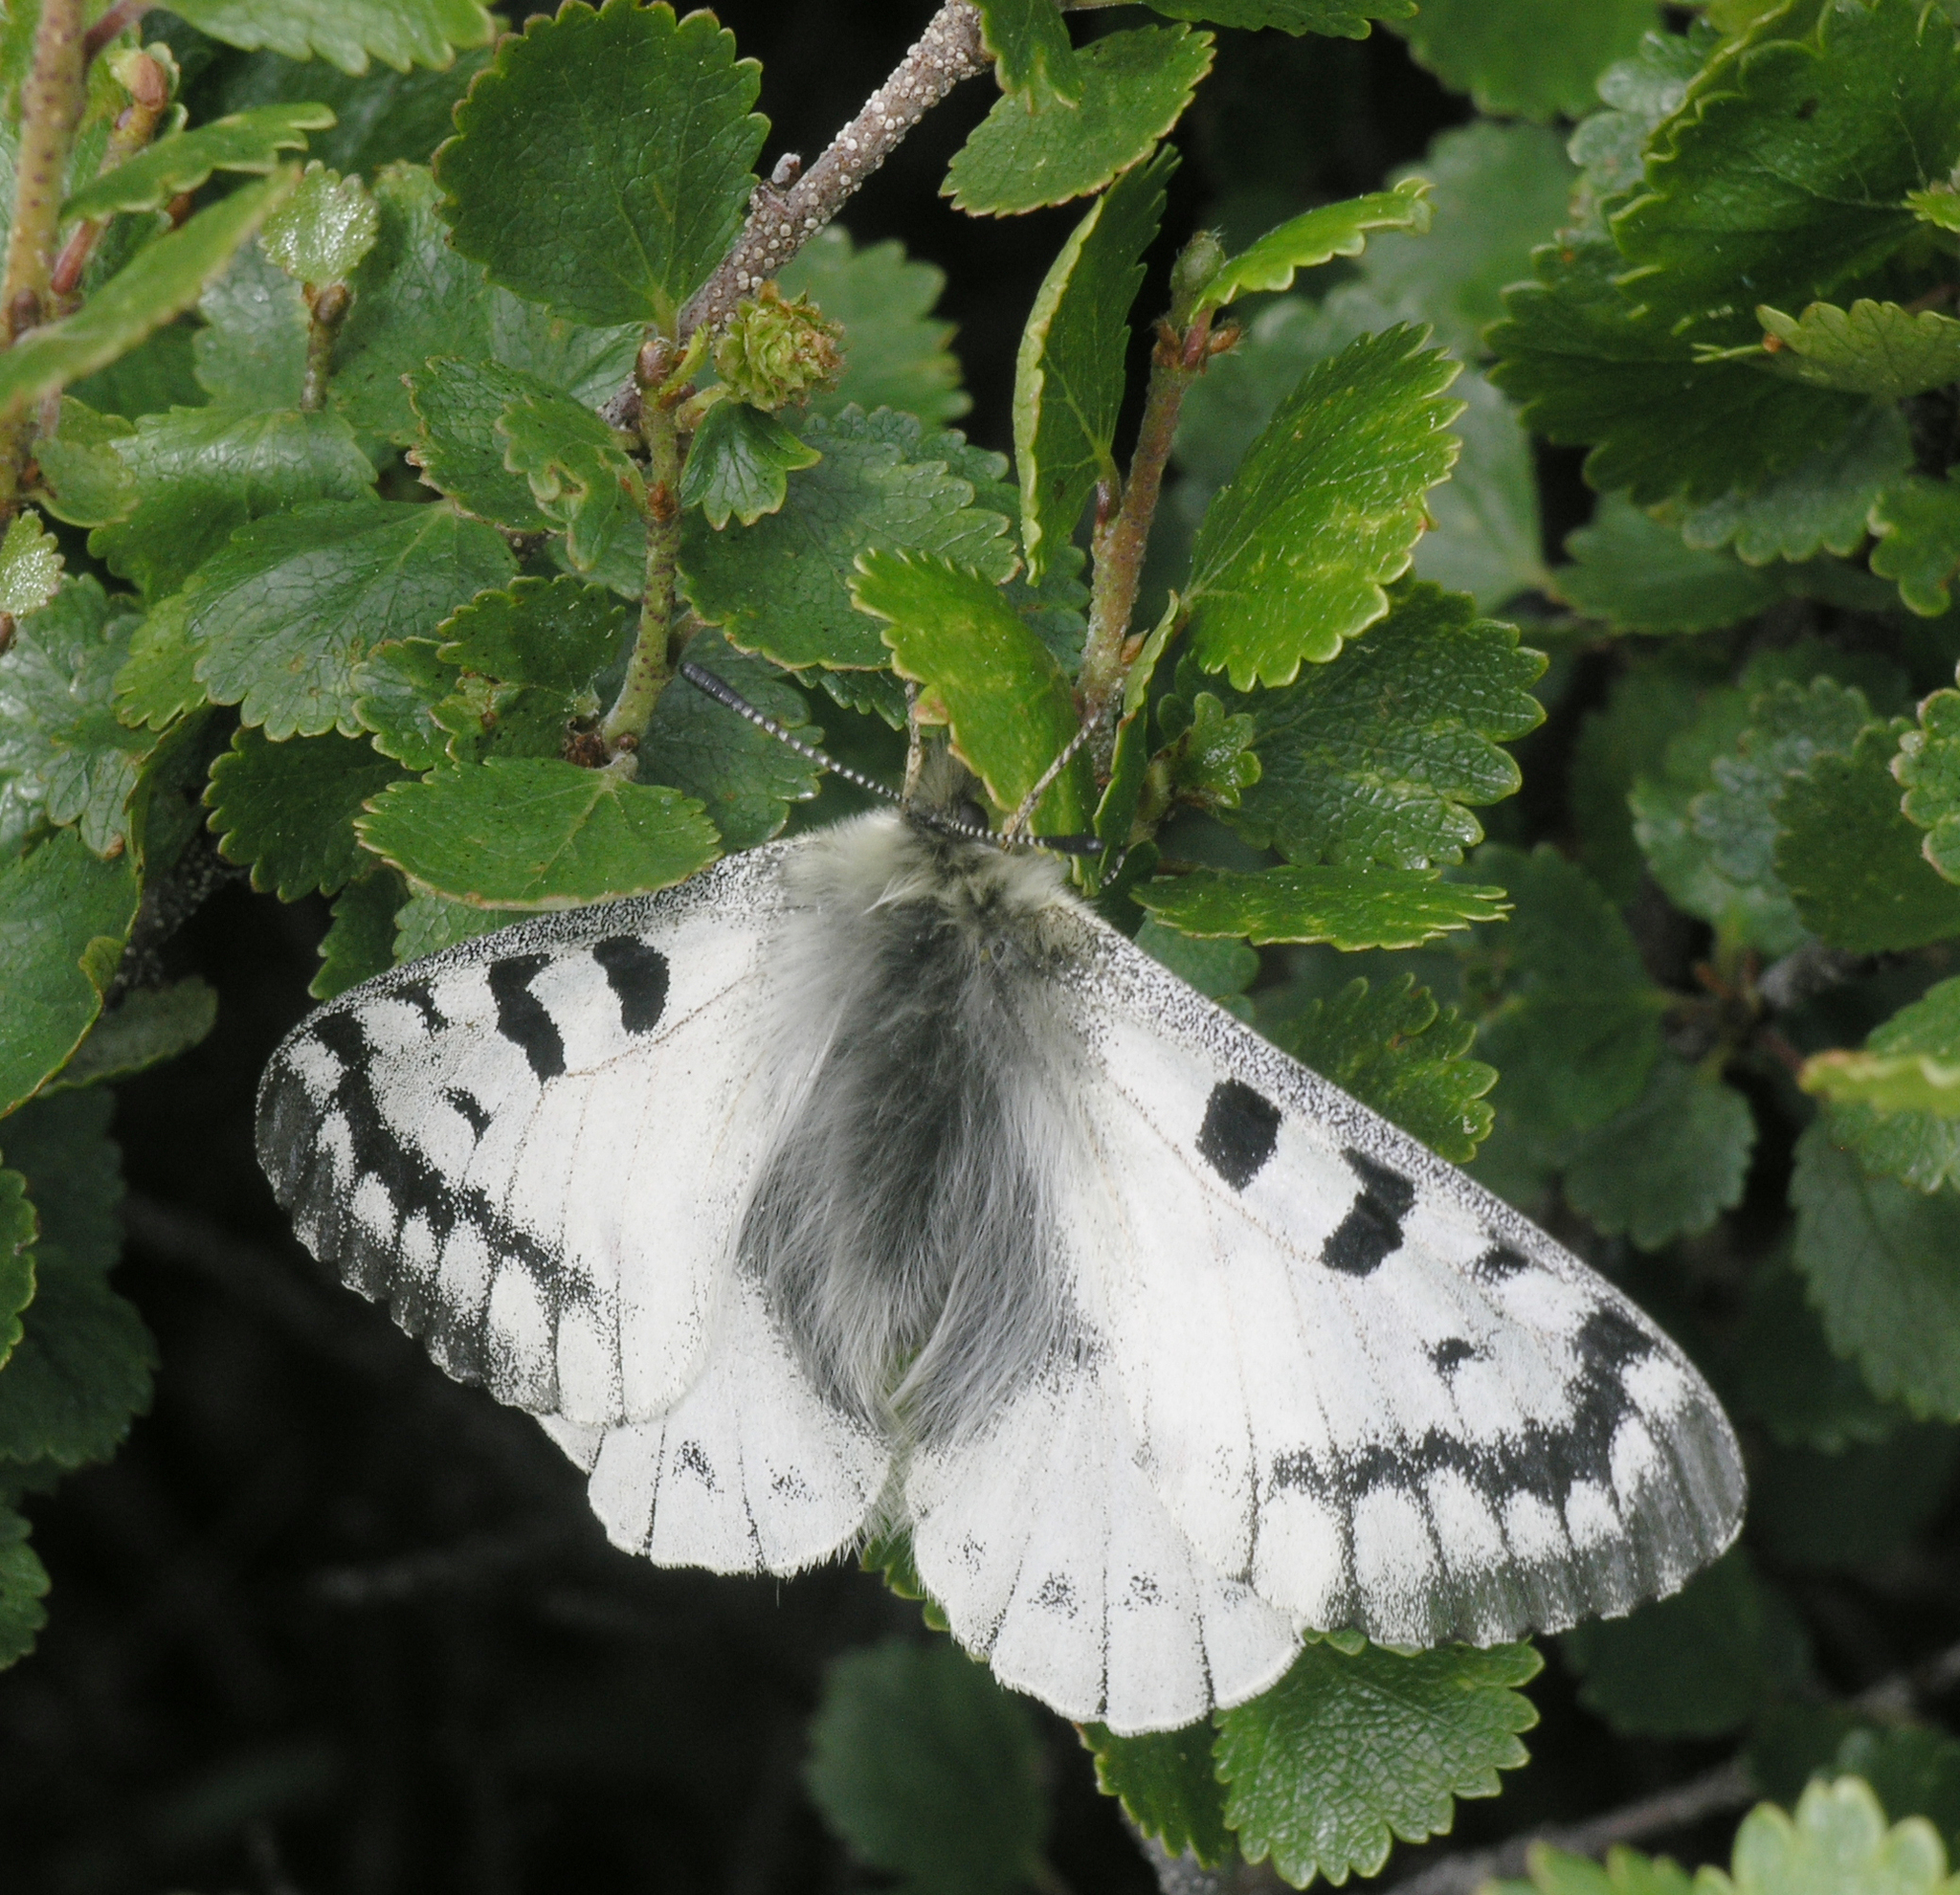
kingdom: Animalia
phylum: Arthropoda
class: Insecta
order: Lepidoptera
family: Papilionidae
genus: Parnassius
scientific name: Parnassius phoebus
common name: Small apollo
